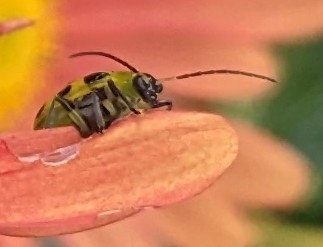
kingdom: Animalia
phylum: Arthropoda
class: Insecta
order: Coleoptera
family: Chrysomelidae
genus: Diabrotica
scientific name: Diabrotica undecimpunctata
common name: Spotted cucumber beetle
